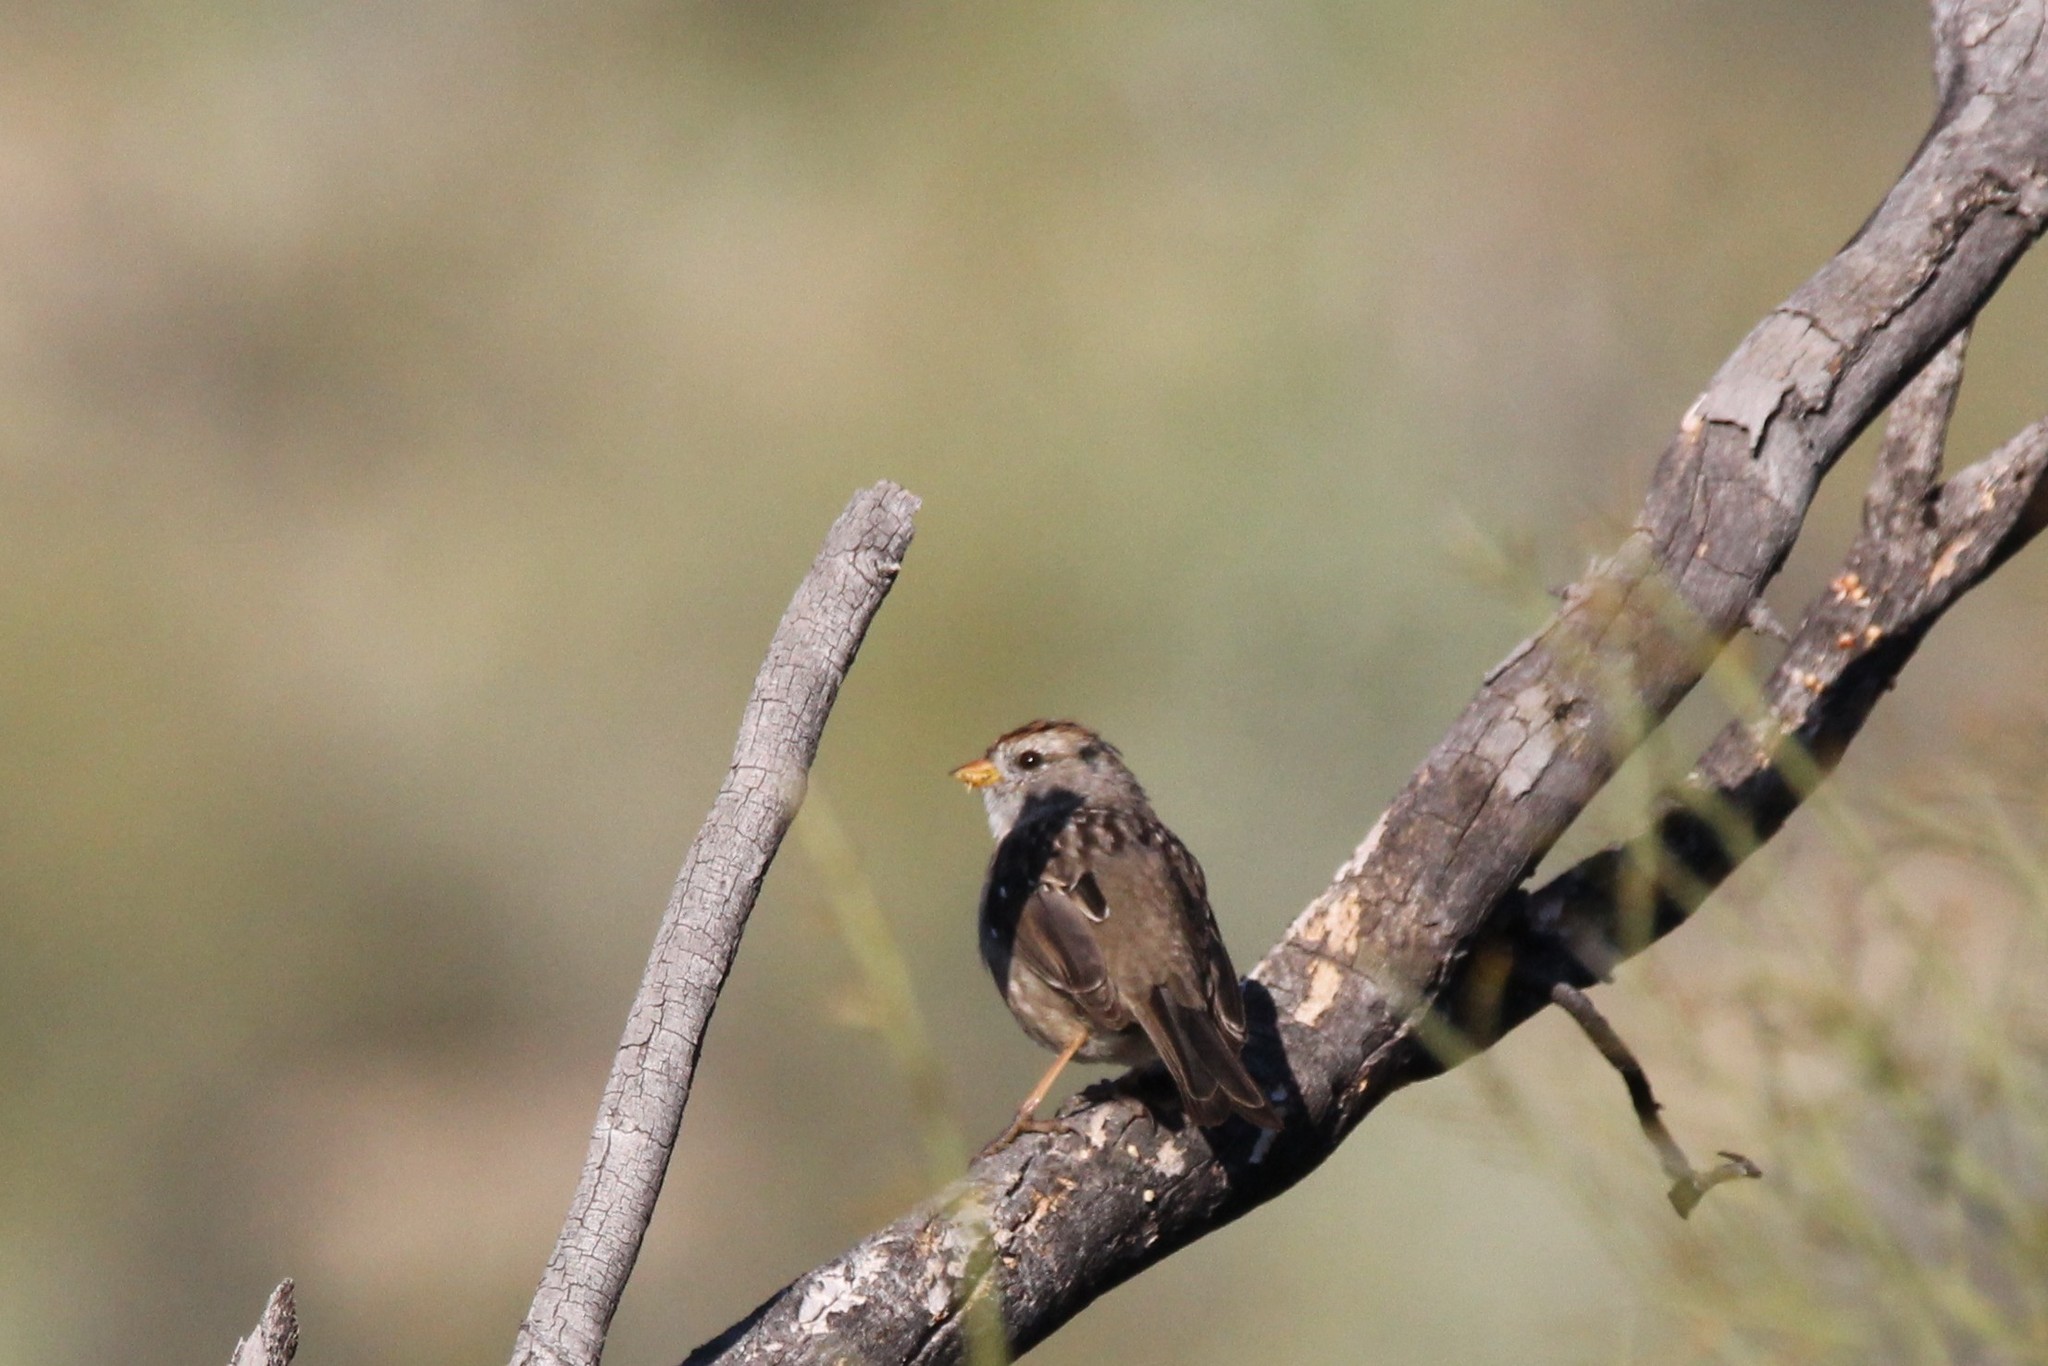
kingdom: Animalia
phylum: Chordata
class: Aves
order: Passeriformes
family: Passerellidae
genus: Zonotrichia
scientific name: Zonotrichia leucophrys
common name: White-crowned sparrow
